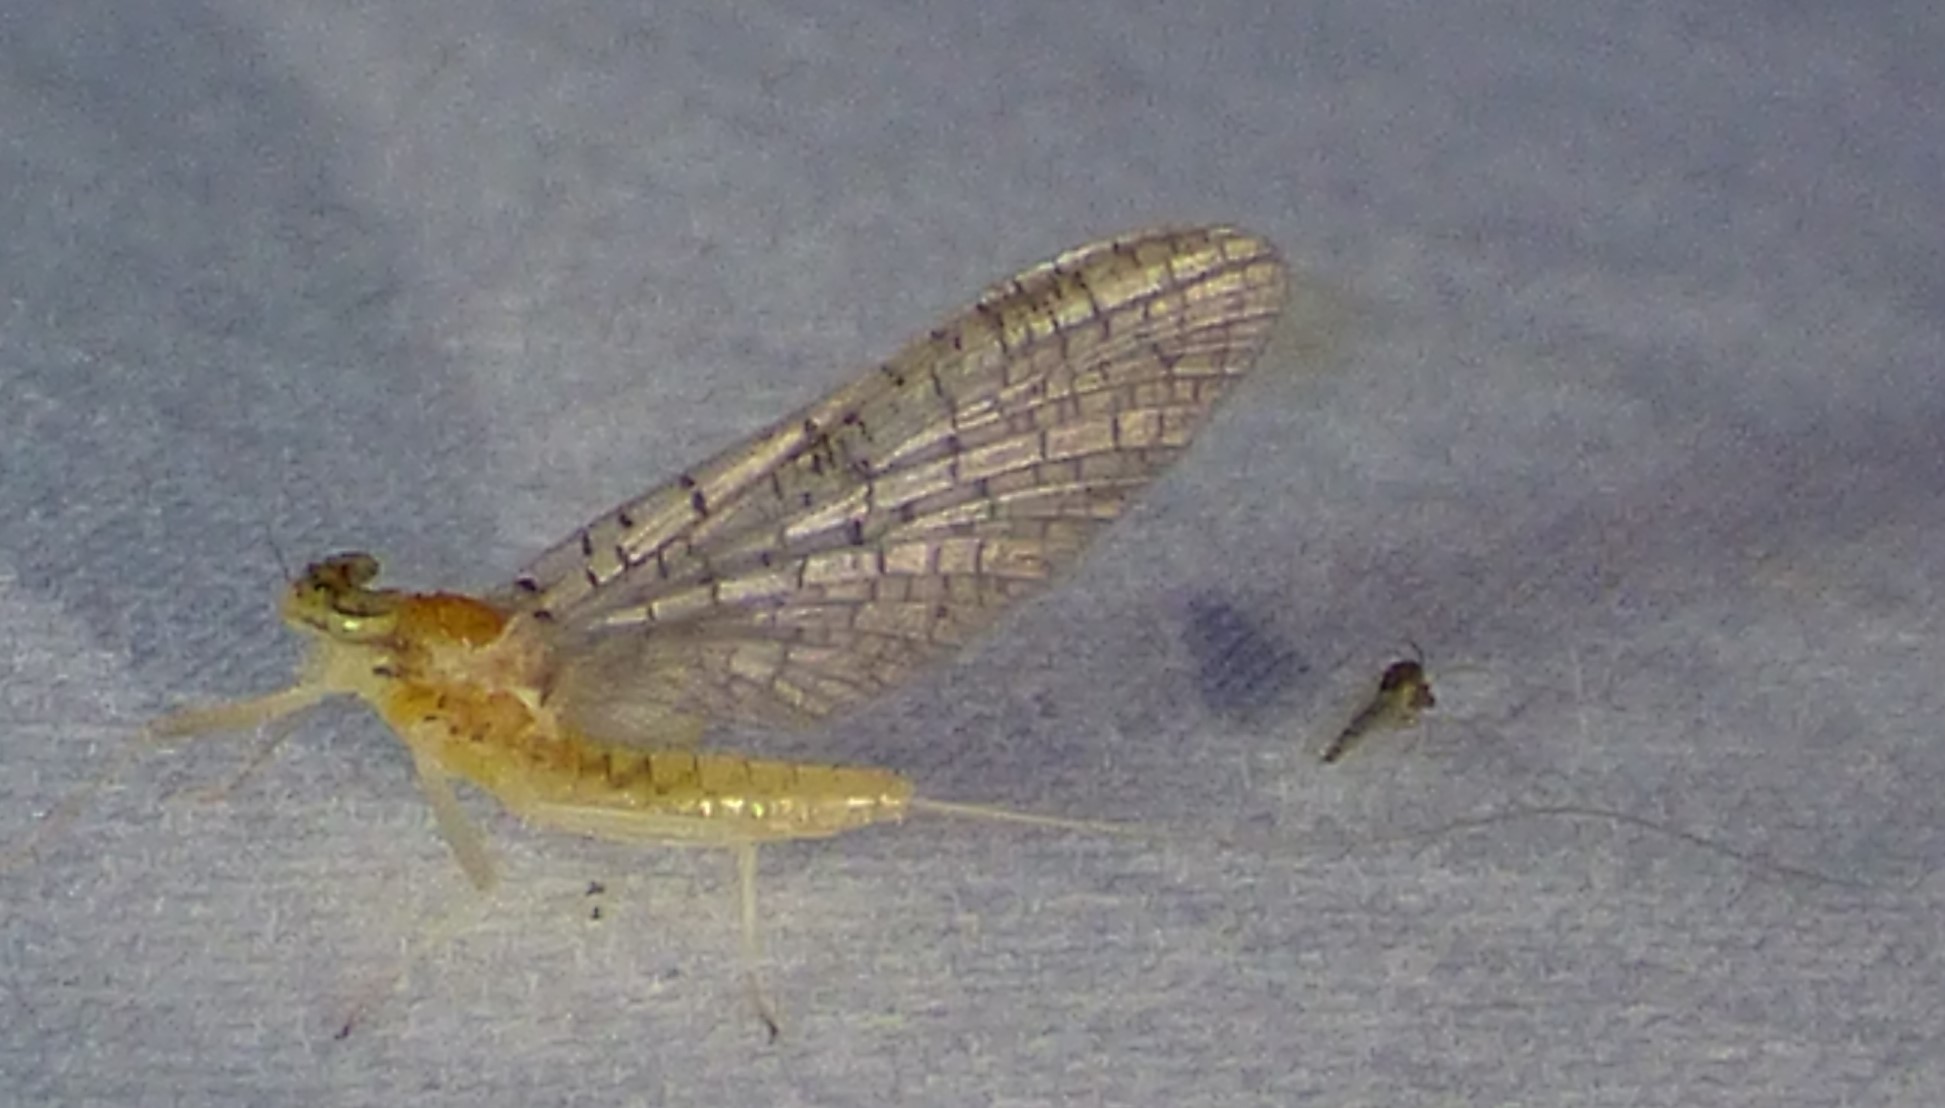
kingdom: Animalia
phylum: Arthropoda
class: Insecta
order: Ephemeroptera
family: Heptageniidae
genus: Leucrocuta
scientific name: Leucrocuta juno
